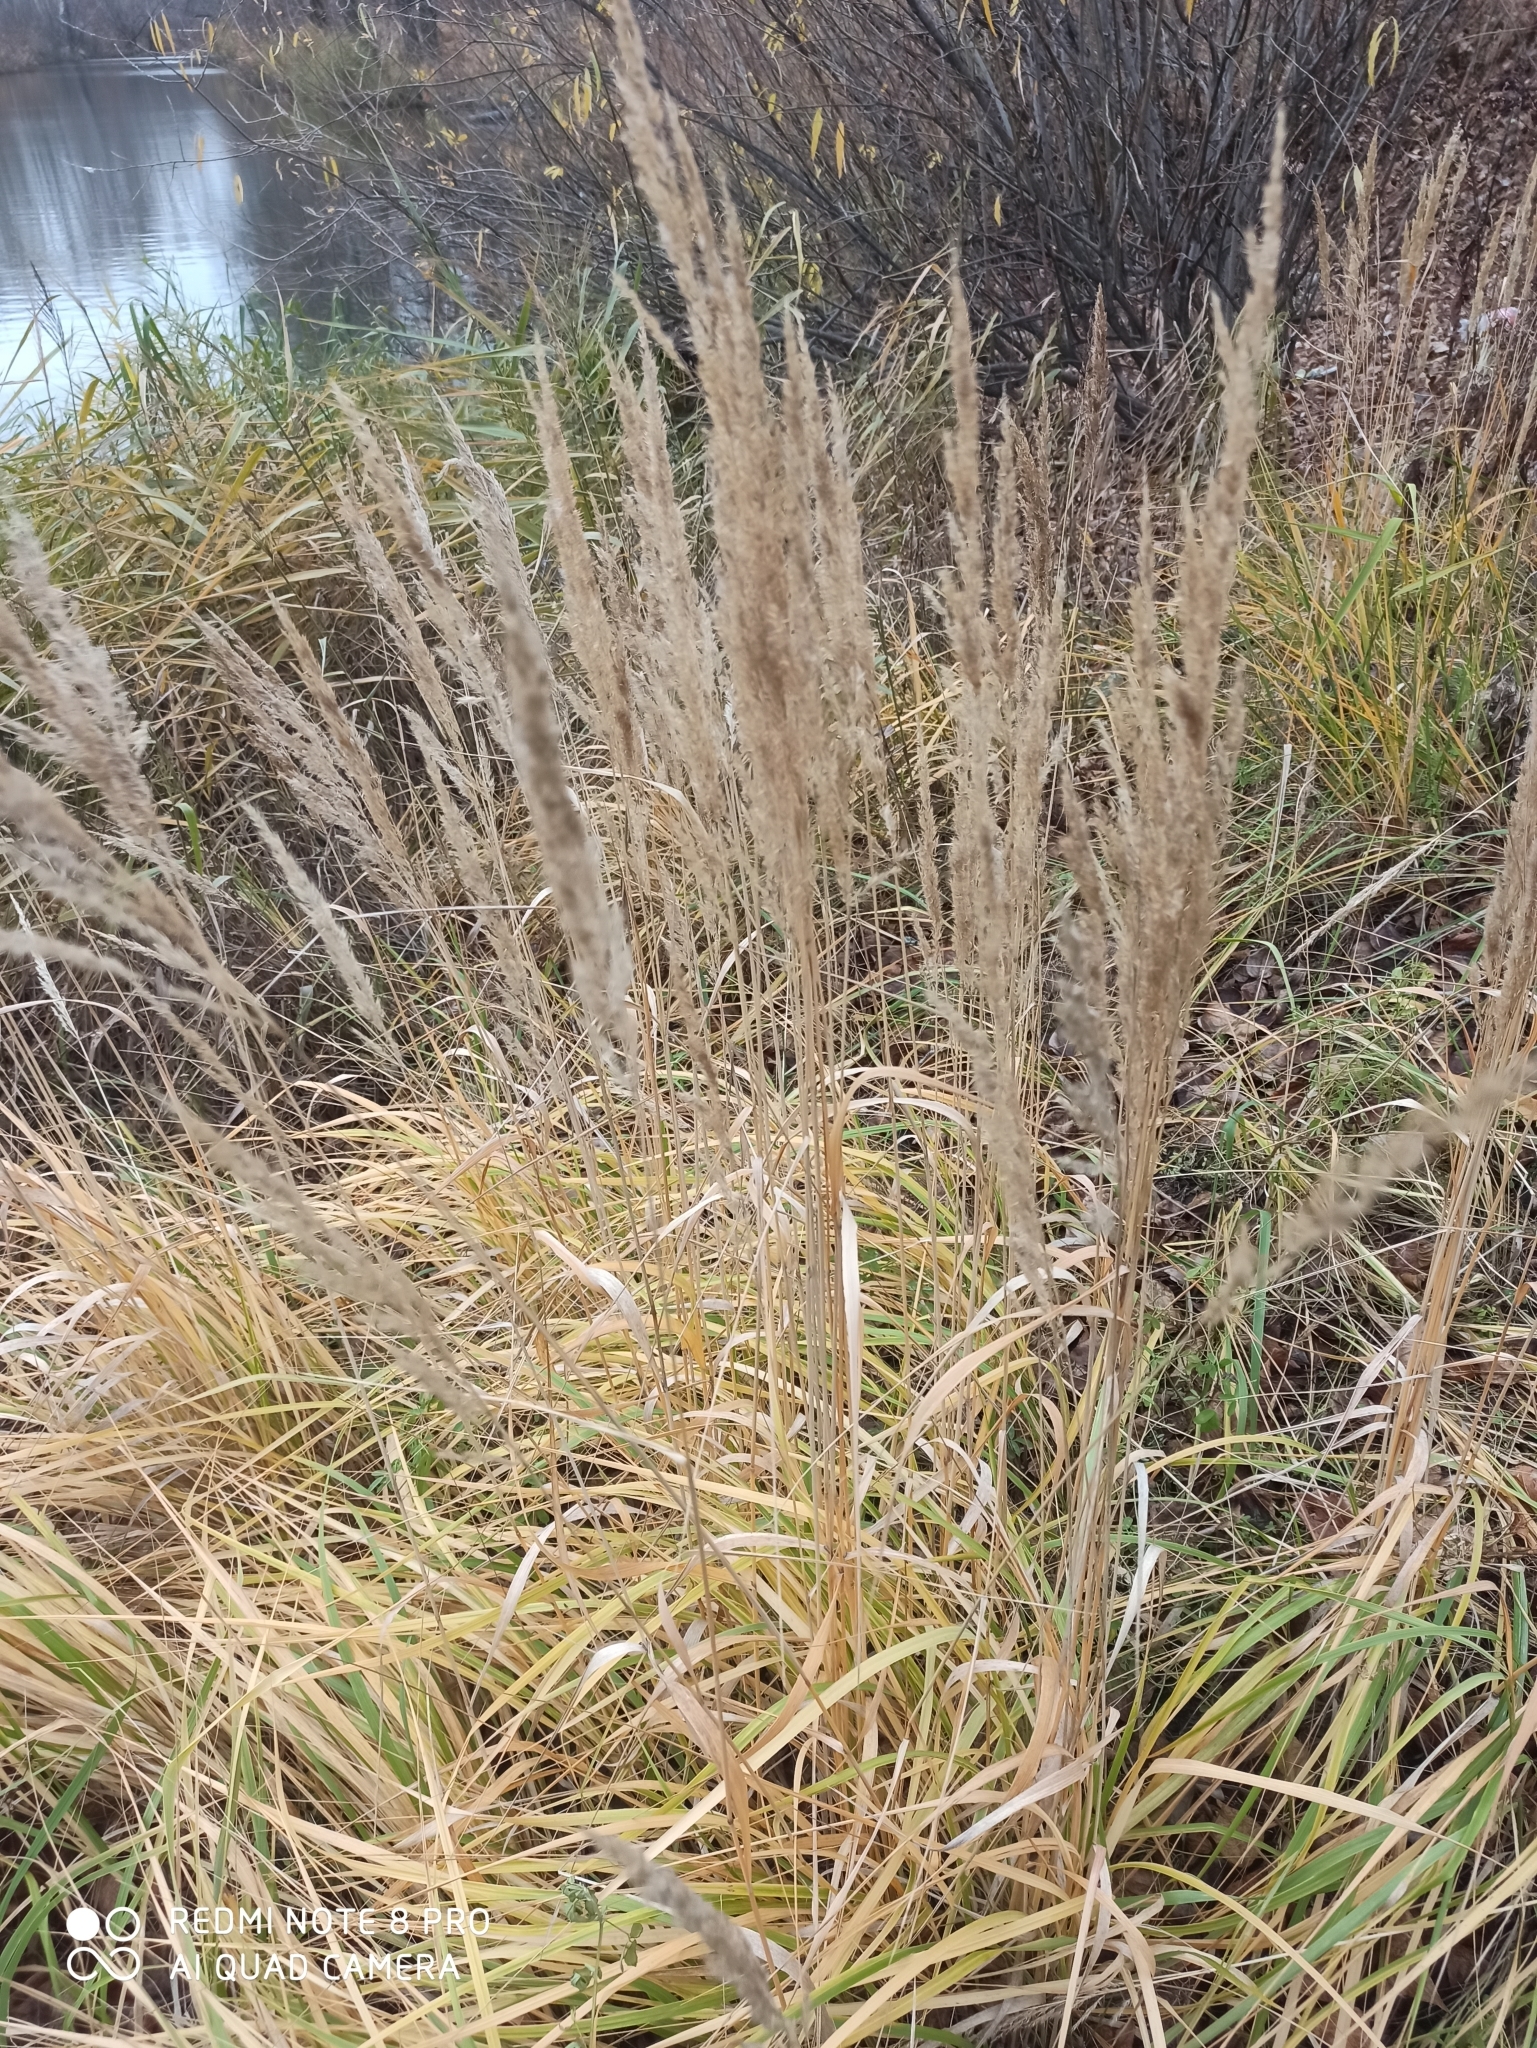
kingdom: Plantae
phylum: Tracheophyta
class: Liliopsida
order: Poales
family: Poaceae
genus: Calamagrostis
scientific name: Calamagrostis epigejos
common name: Wood small-reed
